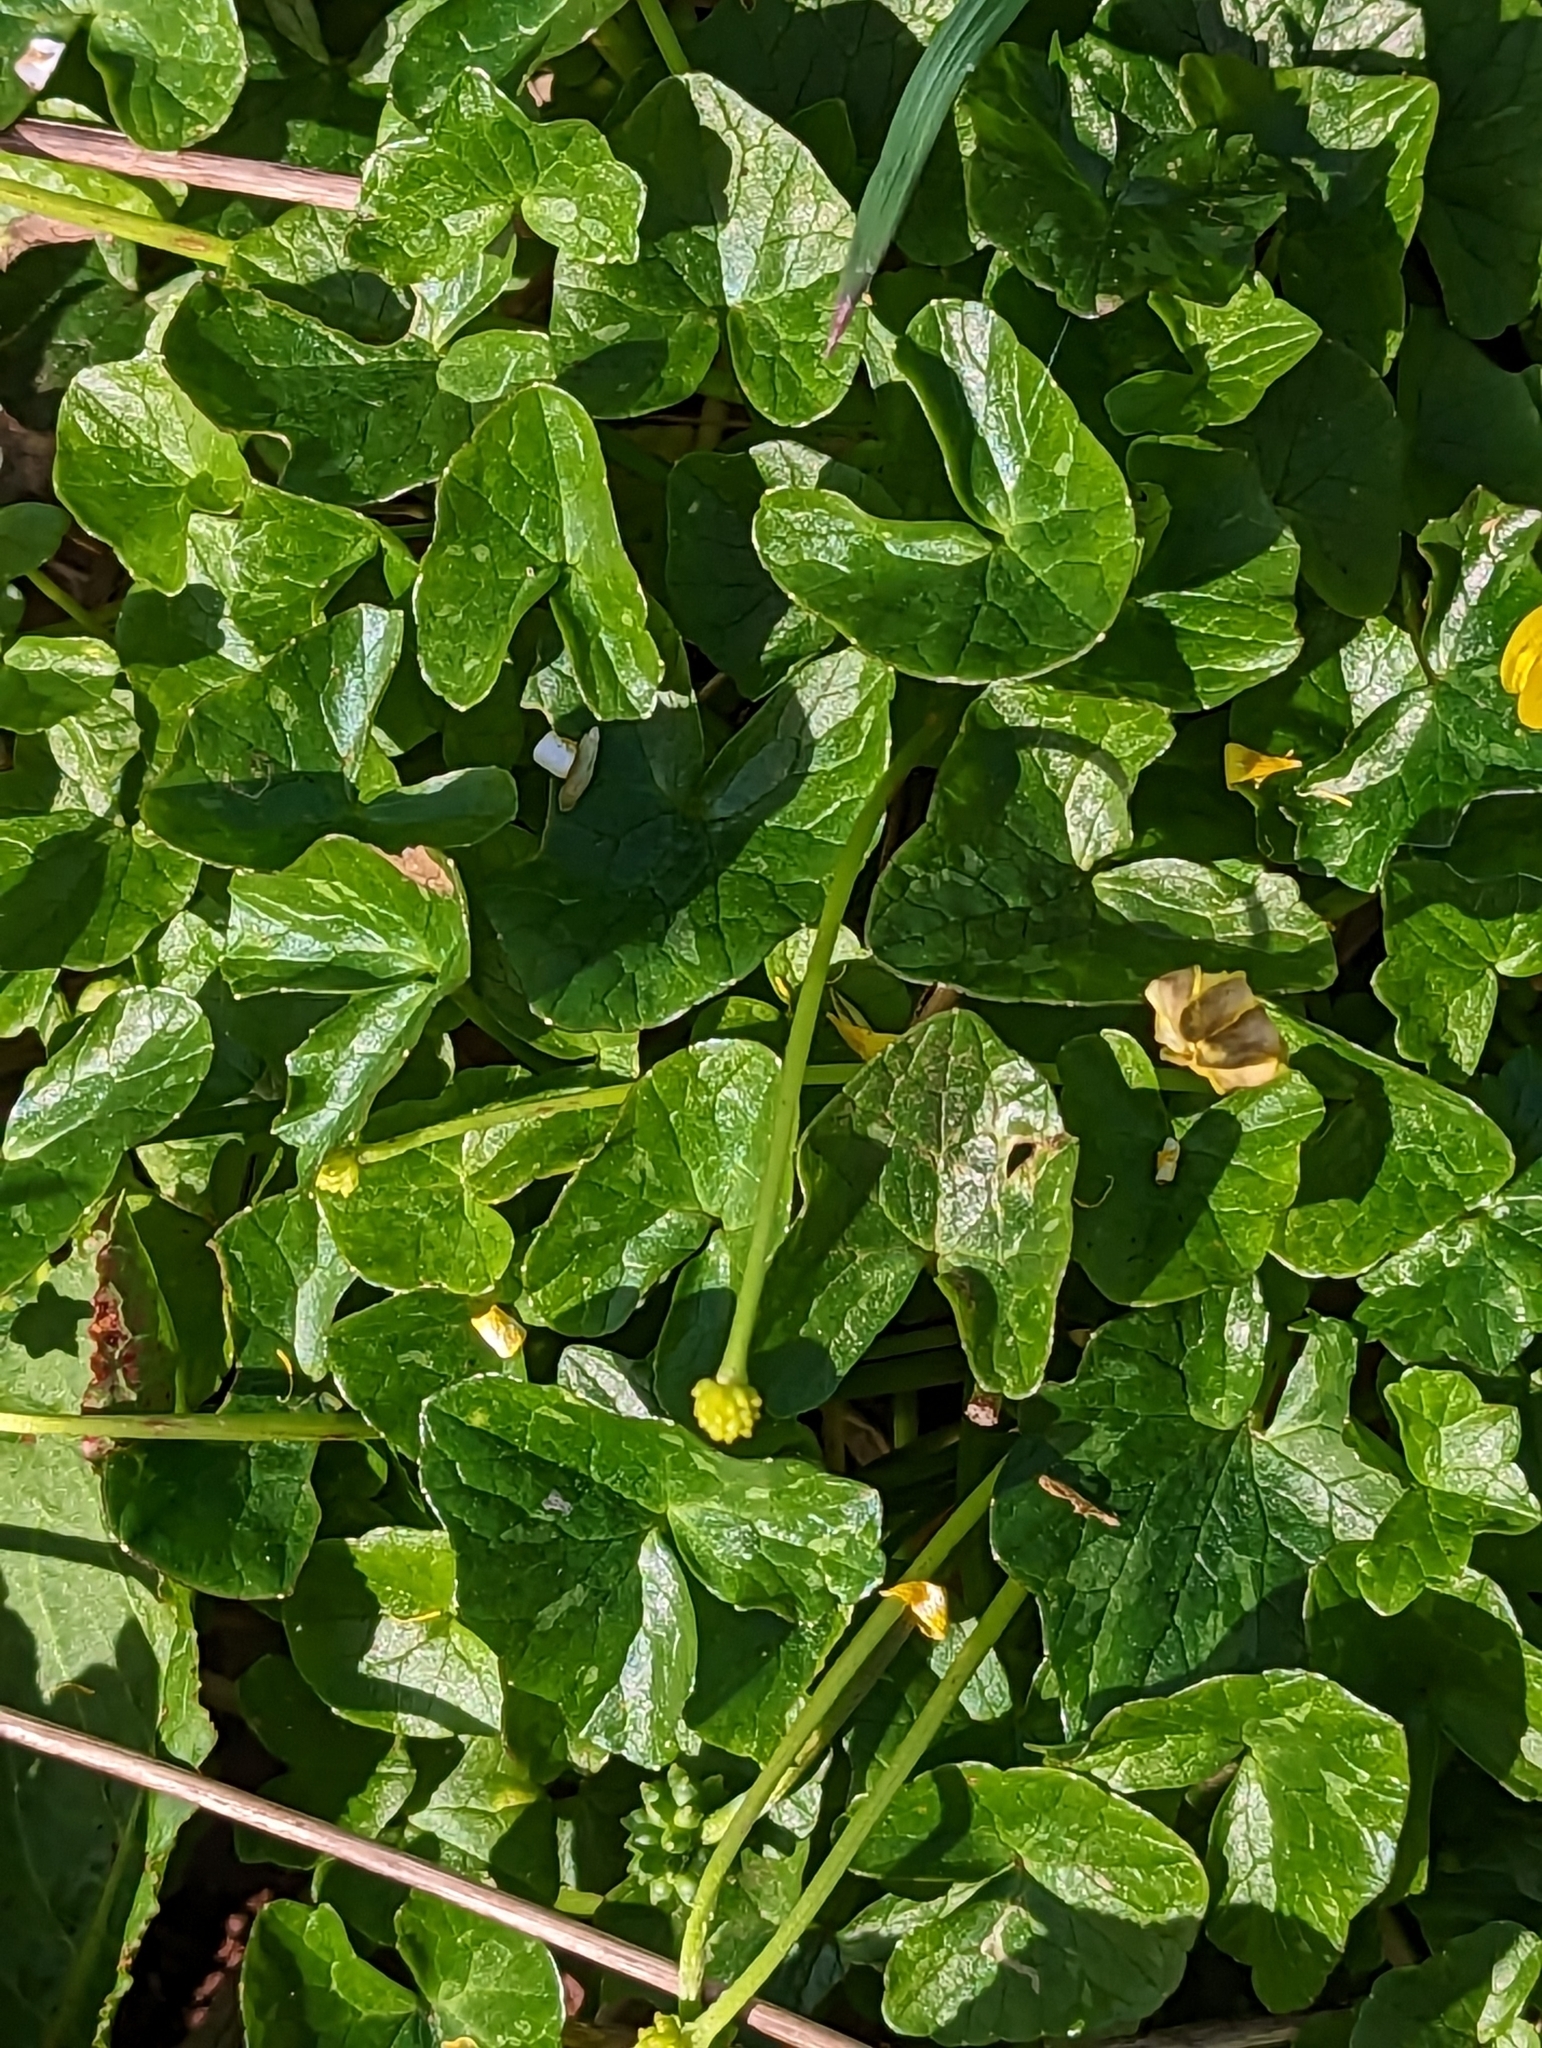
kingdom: Plantae
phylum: Tracheophyta
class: Magnoliopsida
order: Ranunculales
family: Ranunculaceae
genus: Ficaria
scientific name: Ficaria verna
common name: Lesser celandine
